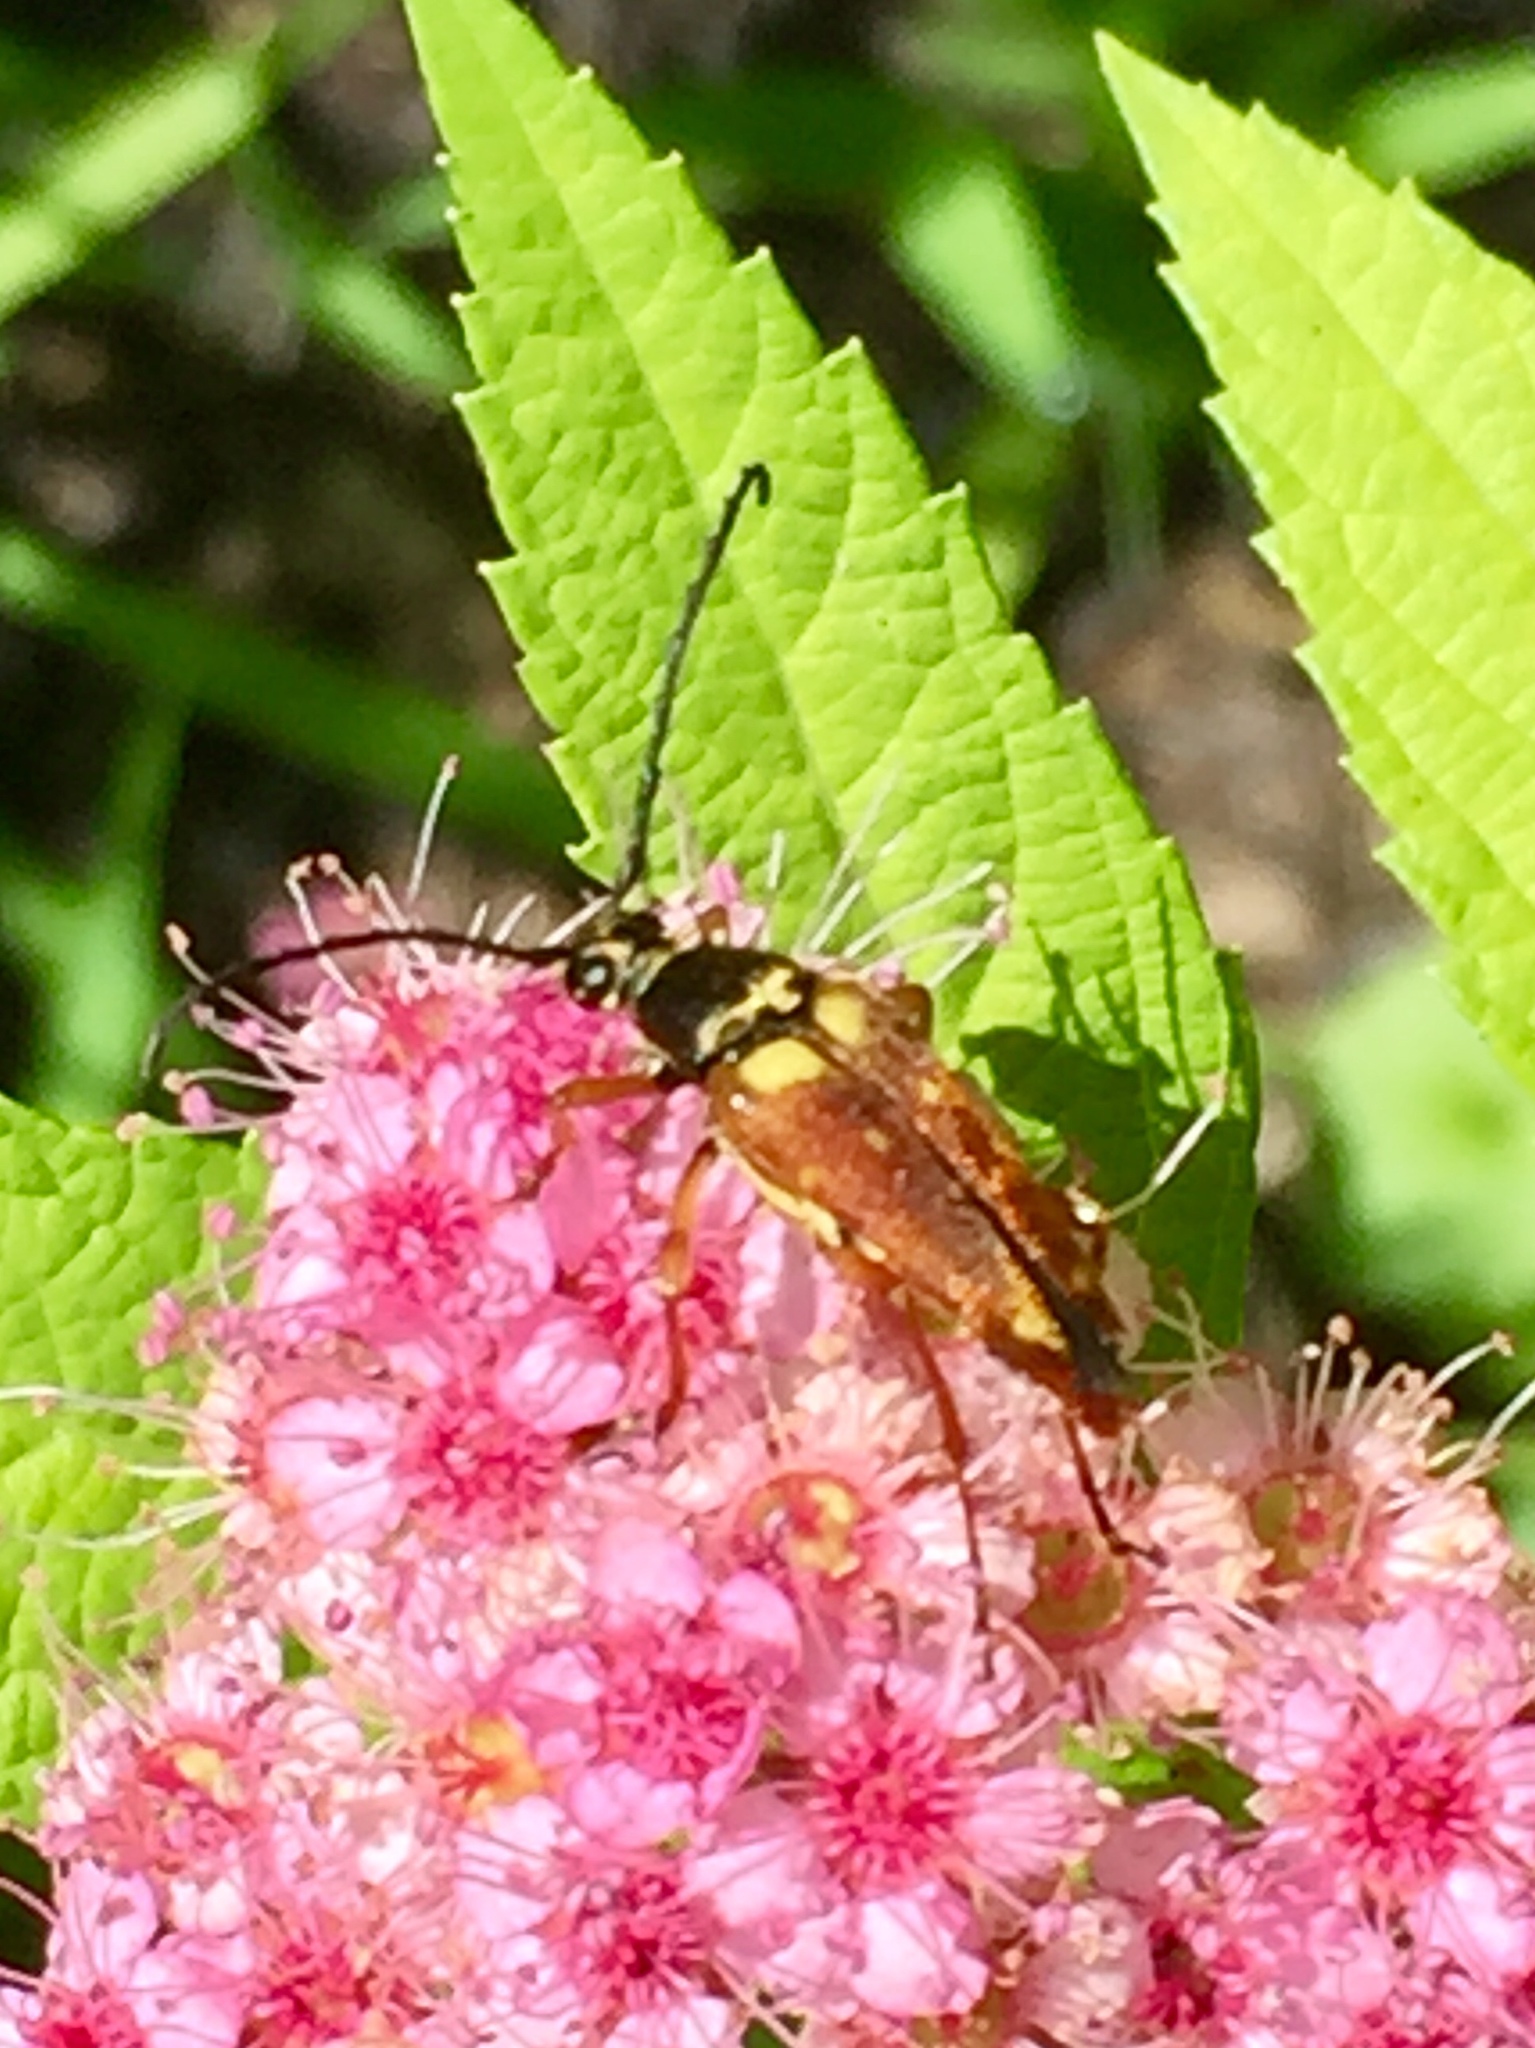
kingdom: Animalia
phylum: Arthropoda
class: Insecta
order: Coleoptera
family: Cerambycidae
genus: Typocerus
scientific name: Typocerus velutinus
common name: Banded longhorn beetle
